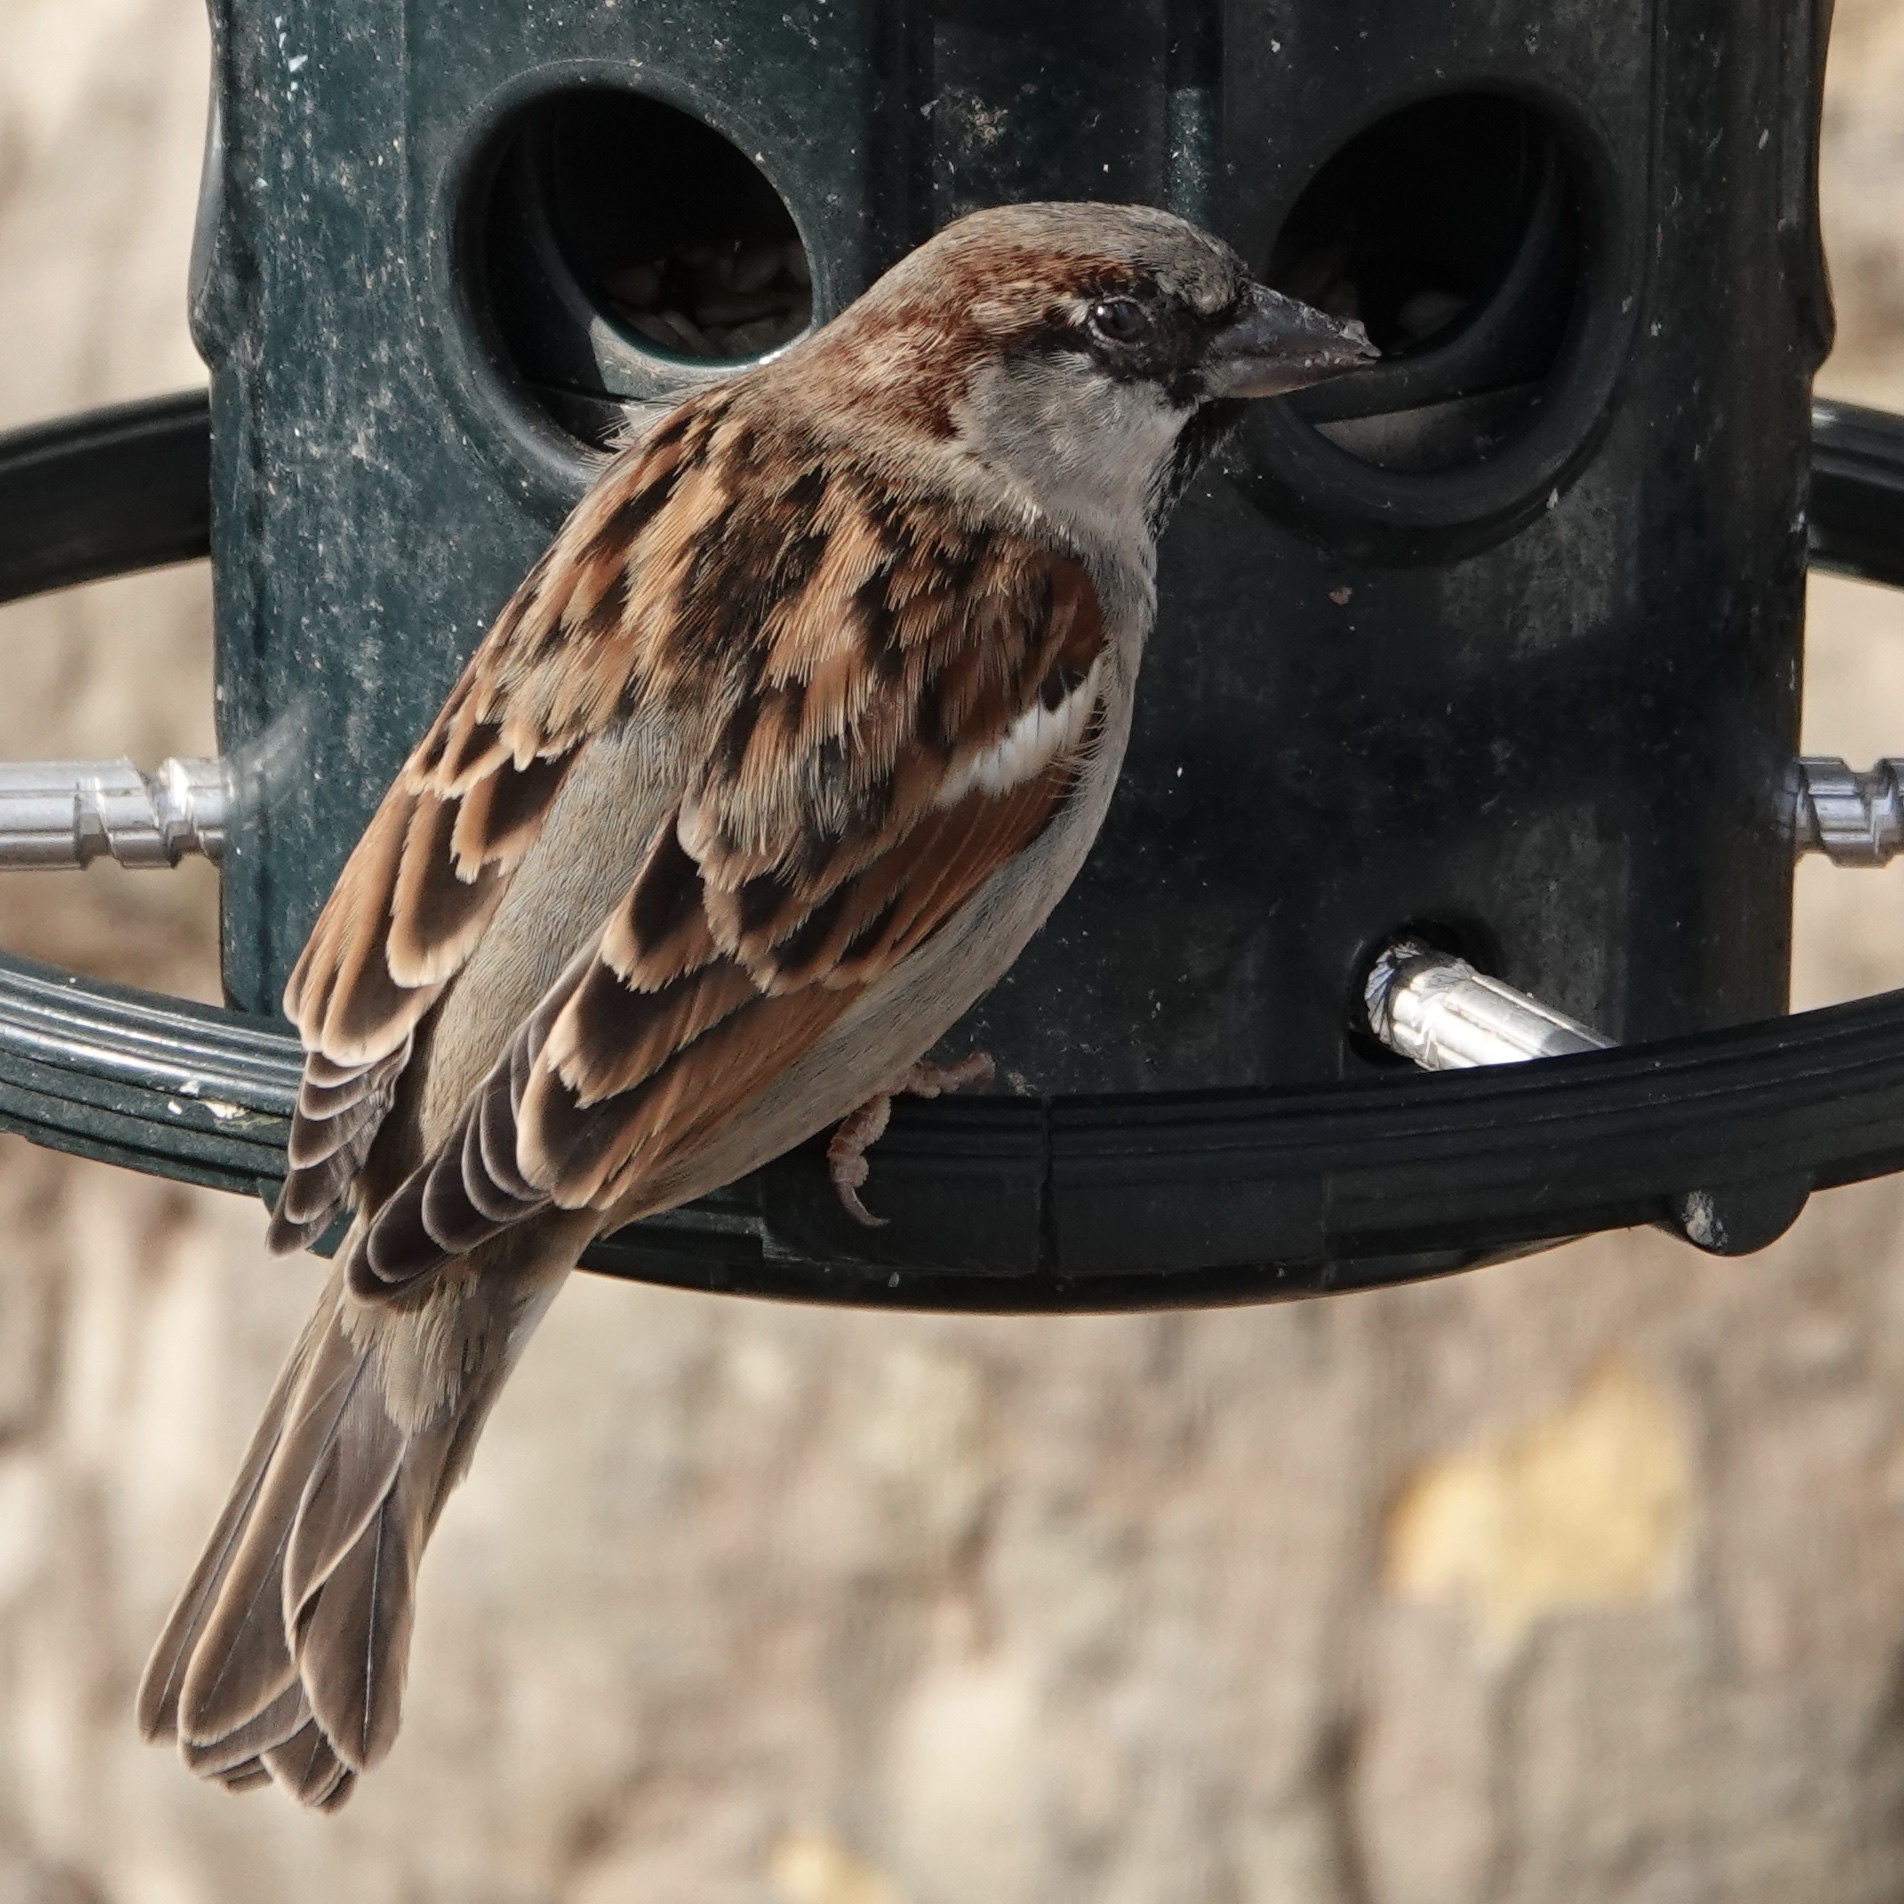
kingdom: Animalia
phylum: Chordata
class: Aves
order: Passeriformes
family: Passeridae
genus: Passer
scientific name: Passer domesticus
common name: House sparrow
